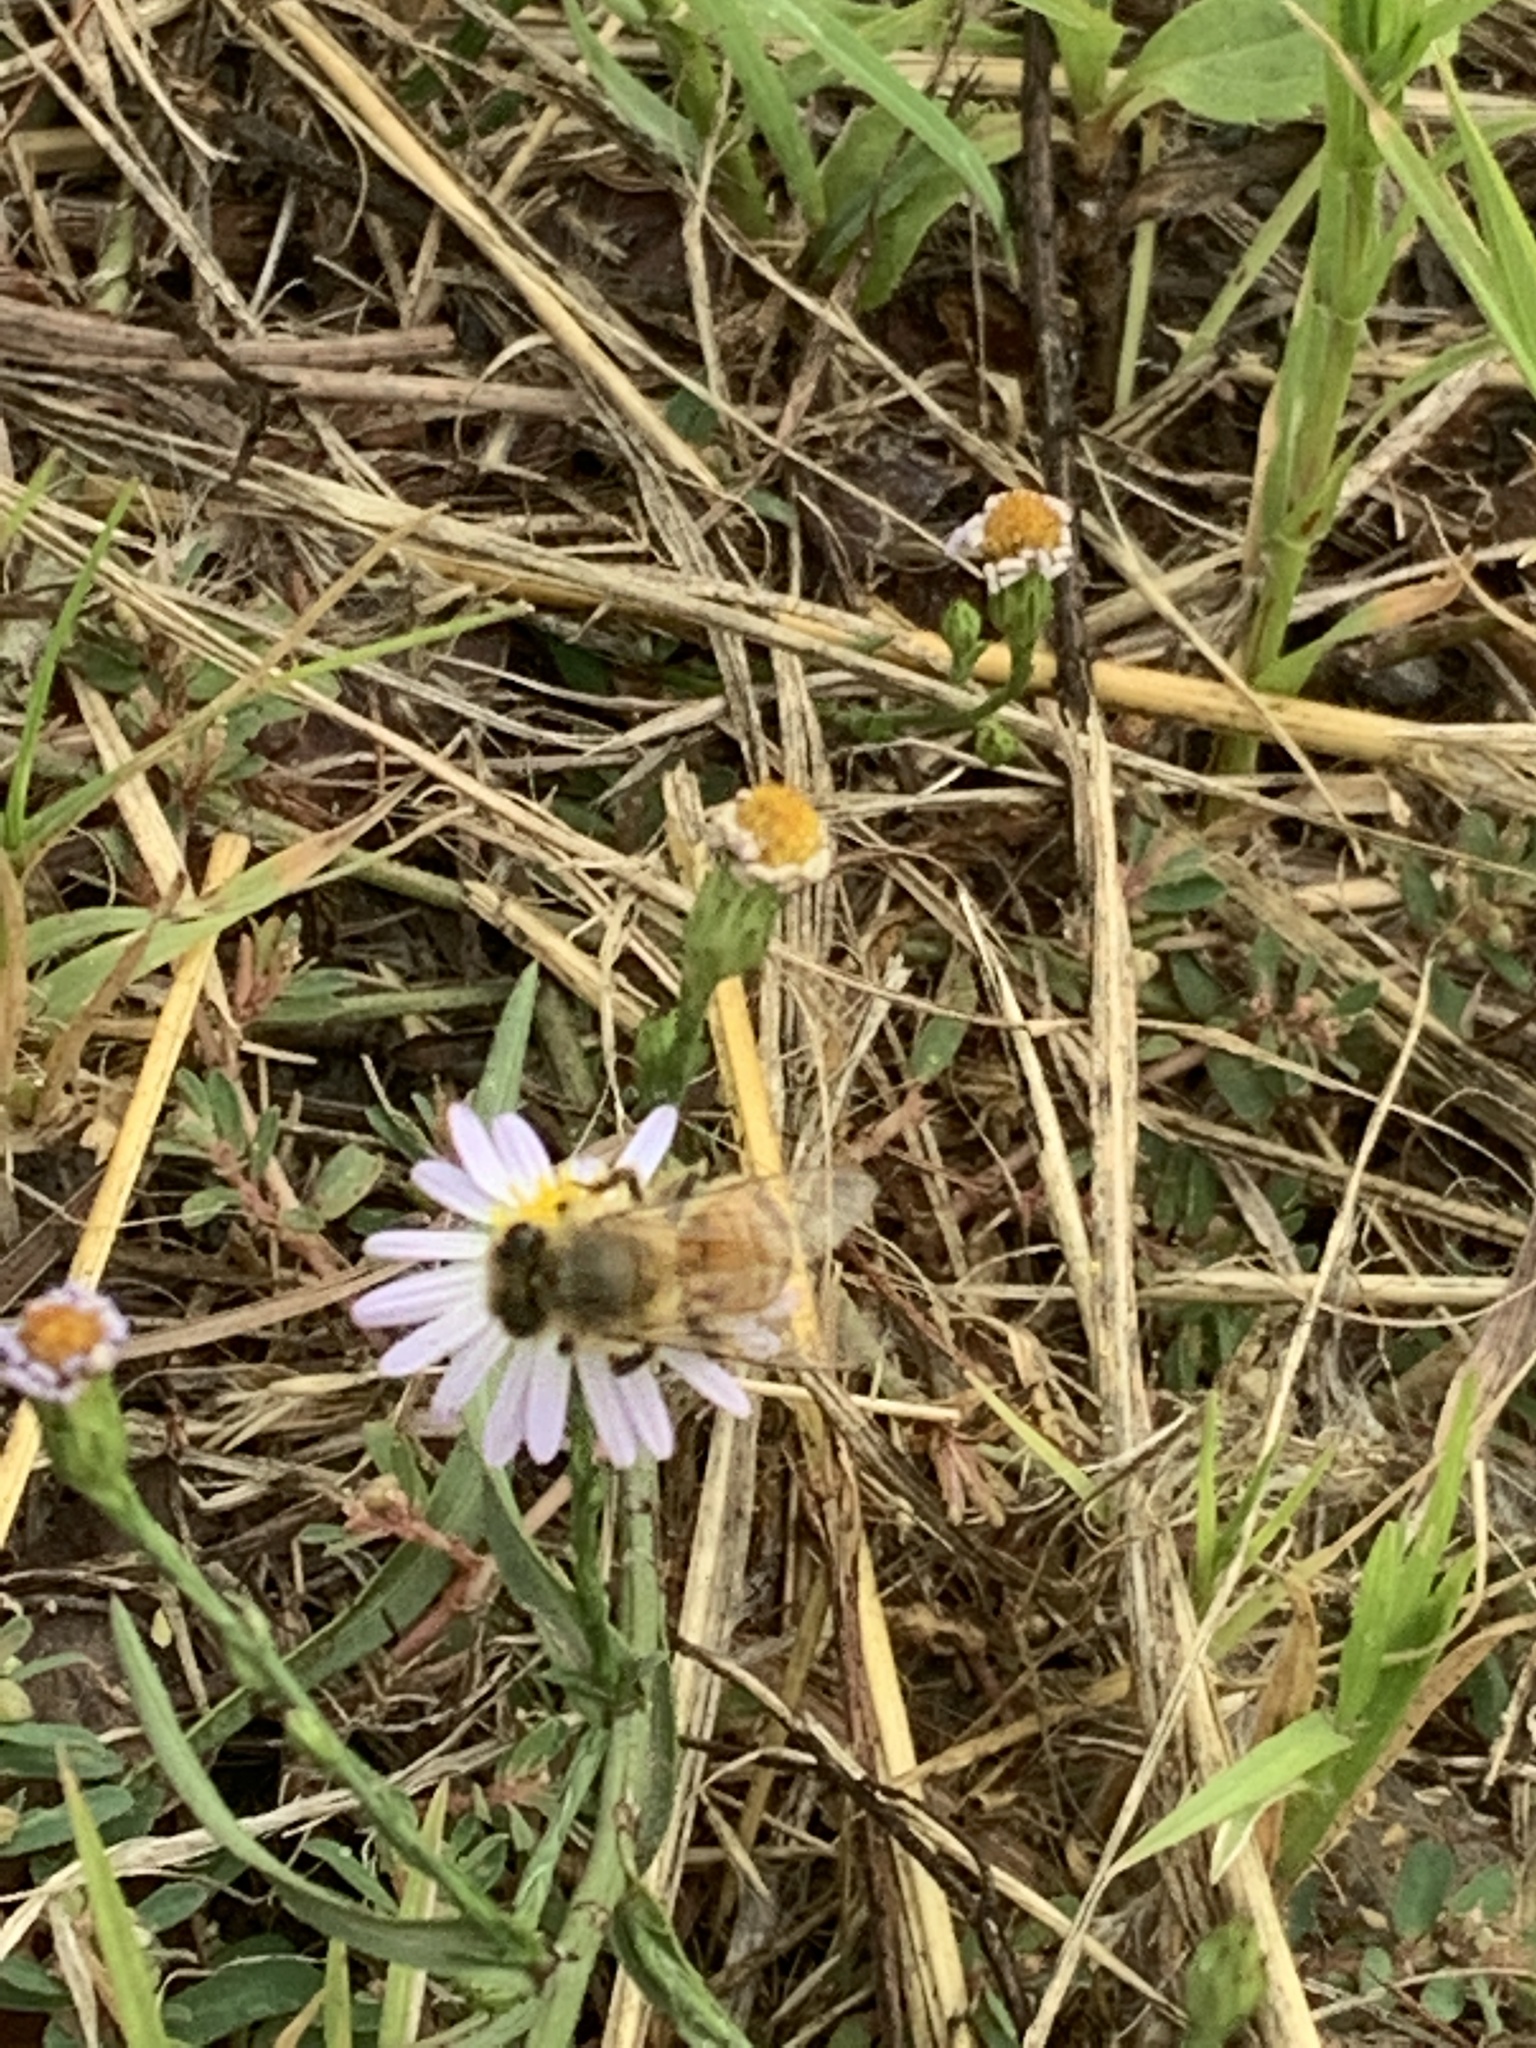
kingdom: Animalia
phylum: Arthropoda
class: Insecta
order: Hymenoptera
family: Apidae
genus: Apis
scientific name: Apis mellifera
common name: Honey bee
